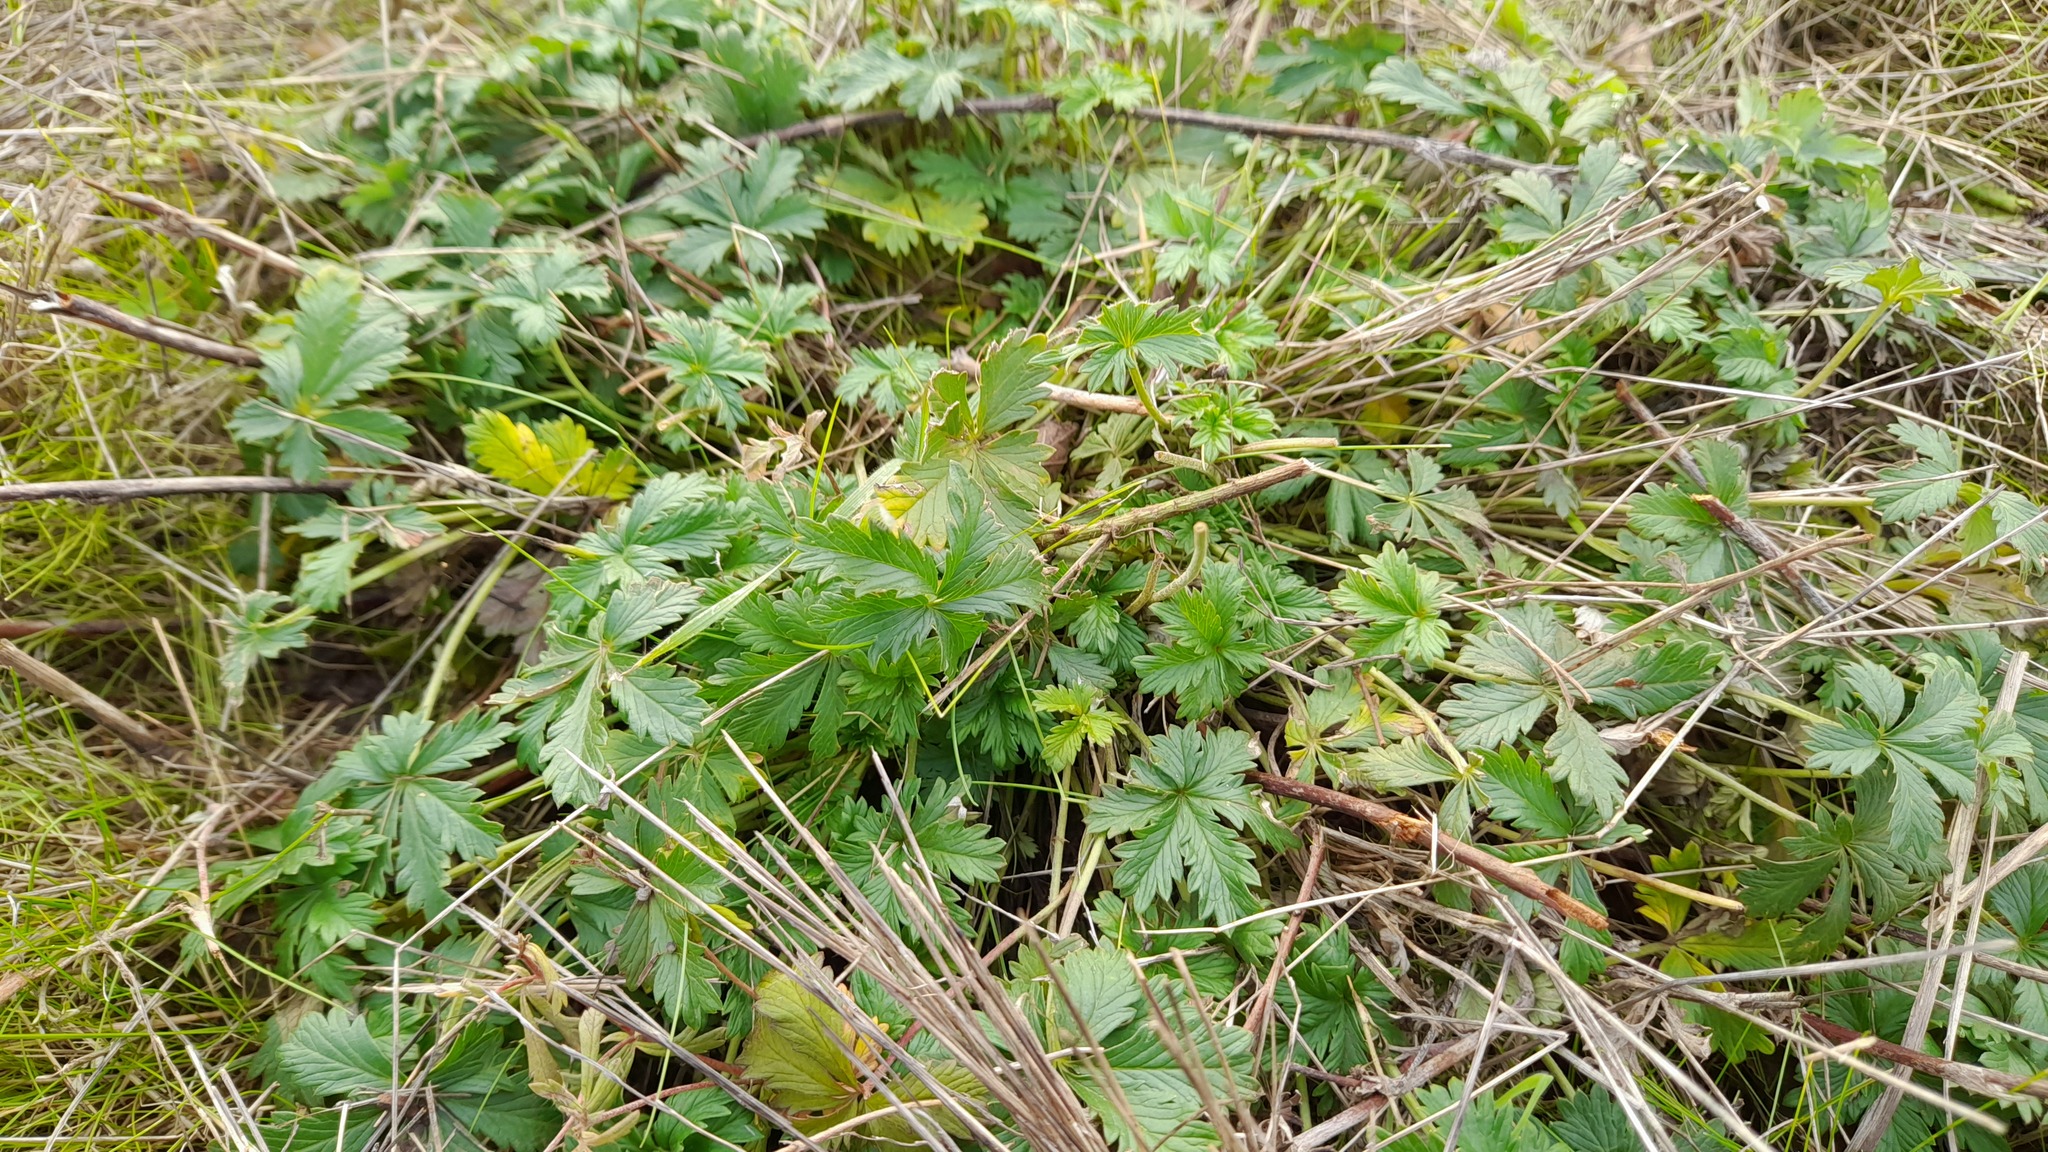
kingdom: Plantae
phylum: Tracheophyta
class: Magnoliopsida
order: Rosales
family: Rosaceae
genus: Potentilla
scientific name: Potentilla argentea
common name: Hoary cinquefoil
